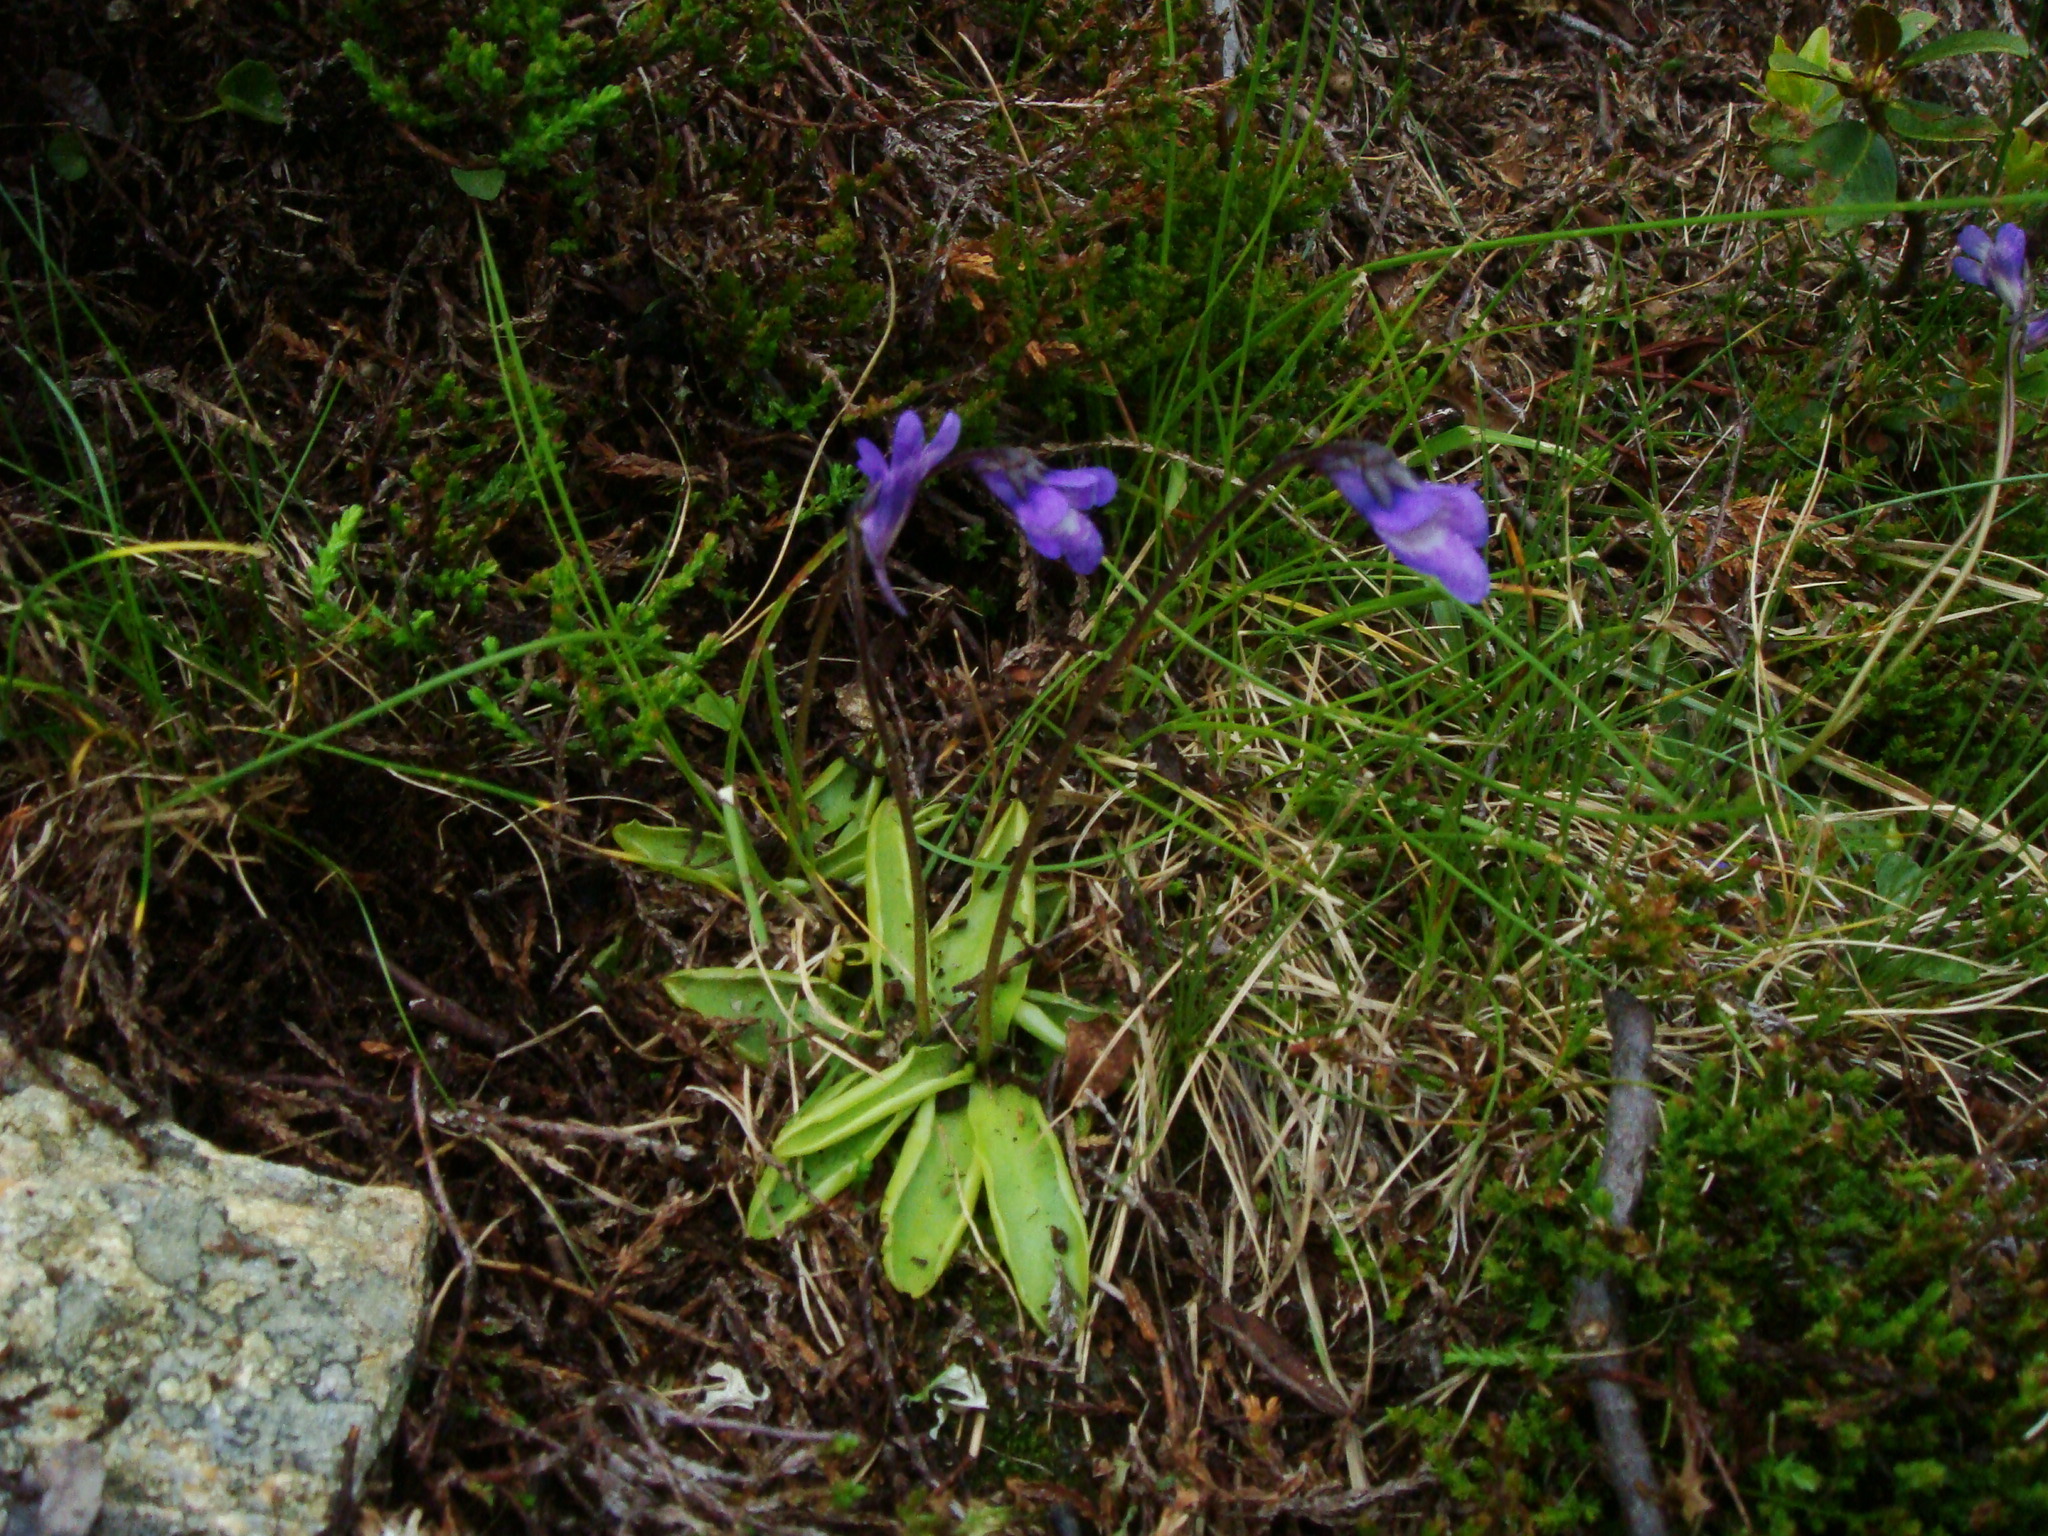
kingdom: Plantae
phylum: Tracheophyta
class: Magnoliopsida
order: Lamiales
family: Lentibulariaceae
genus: Pinguicula
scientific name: Pinguicula vulgaris
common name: Common butterwort
